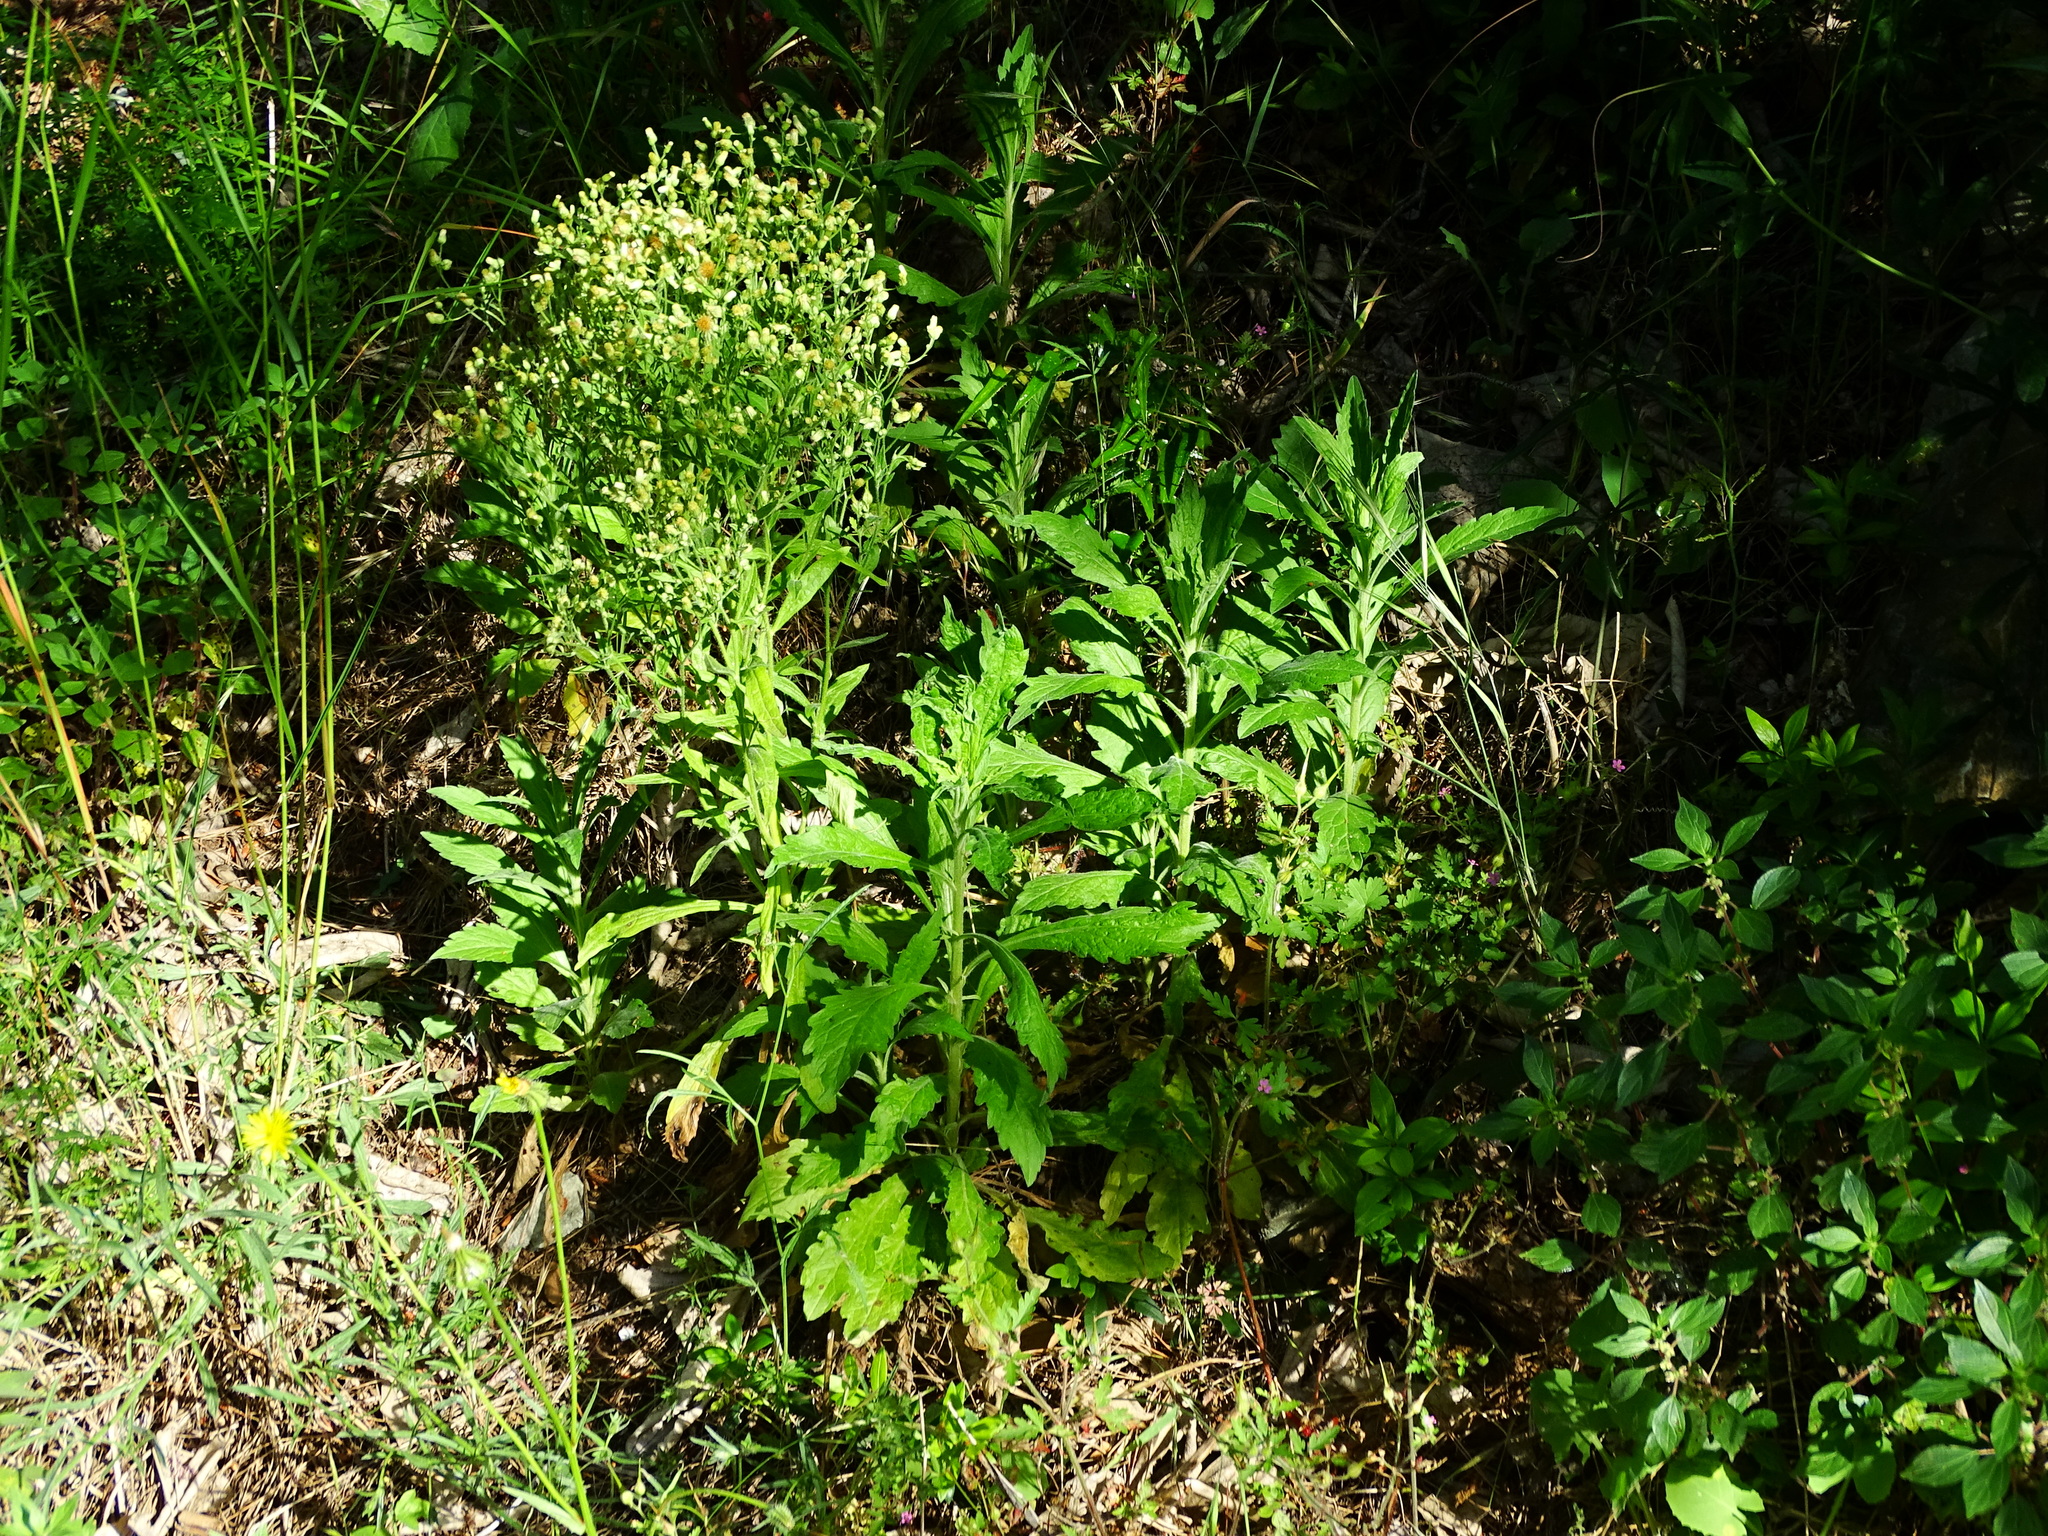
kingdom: Plantae
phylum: Tracheophyta
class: Magnoliopsida
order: Asterales
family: Asteraceae
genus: Erigeron
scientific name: Erigeron sumatrensis
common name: Daisy
